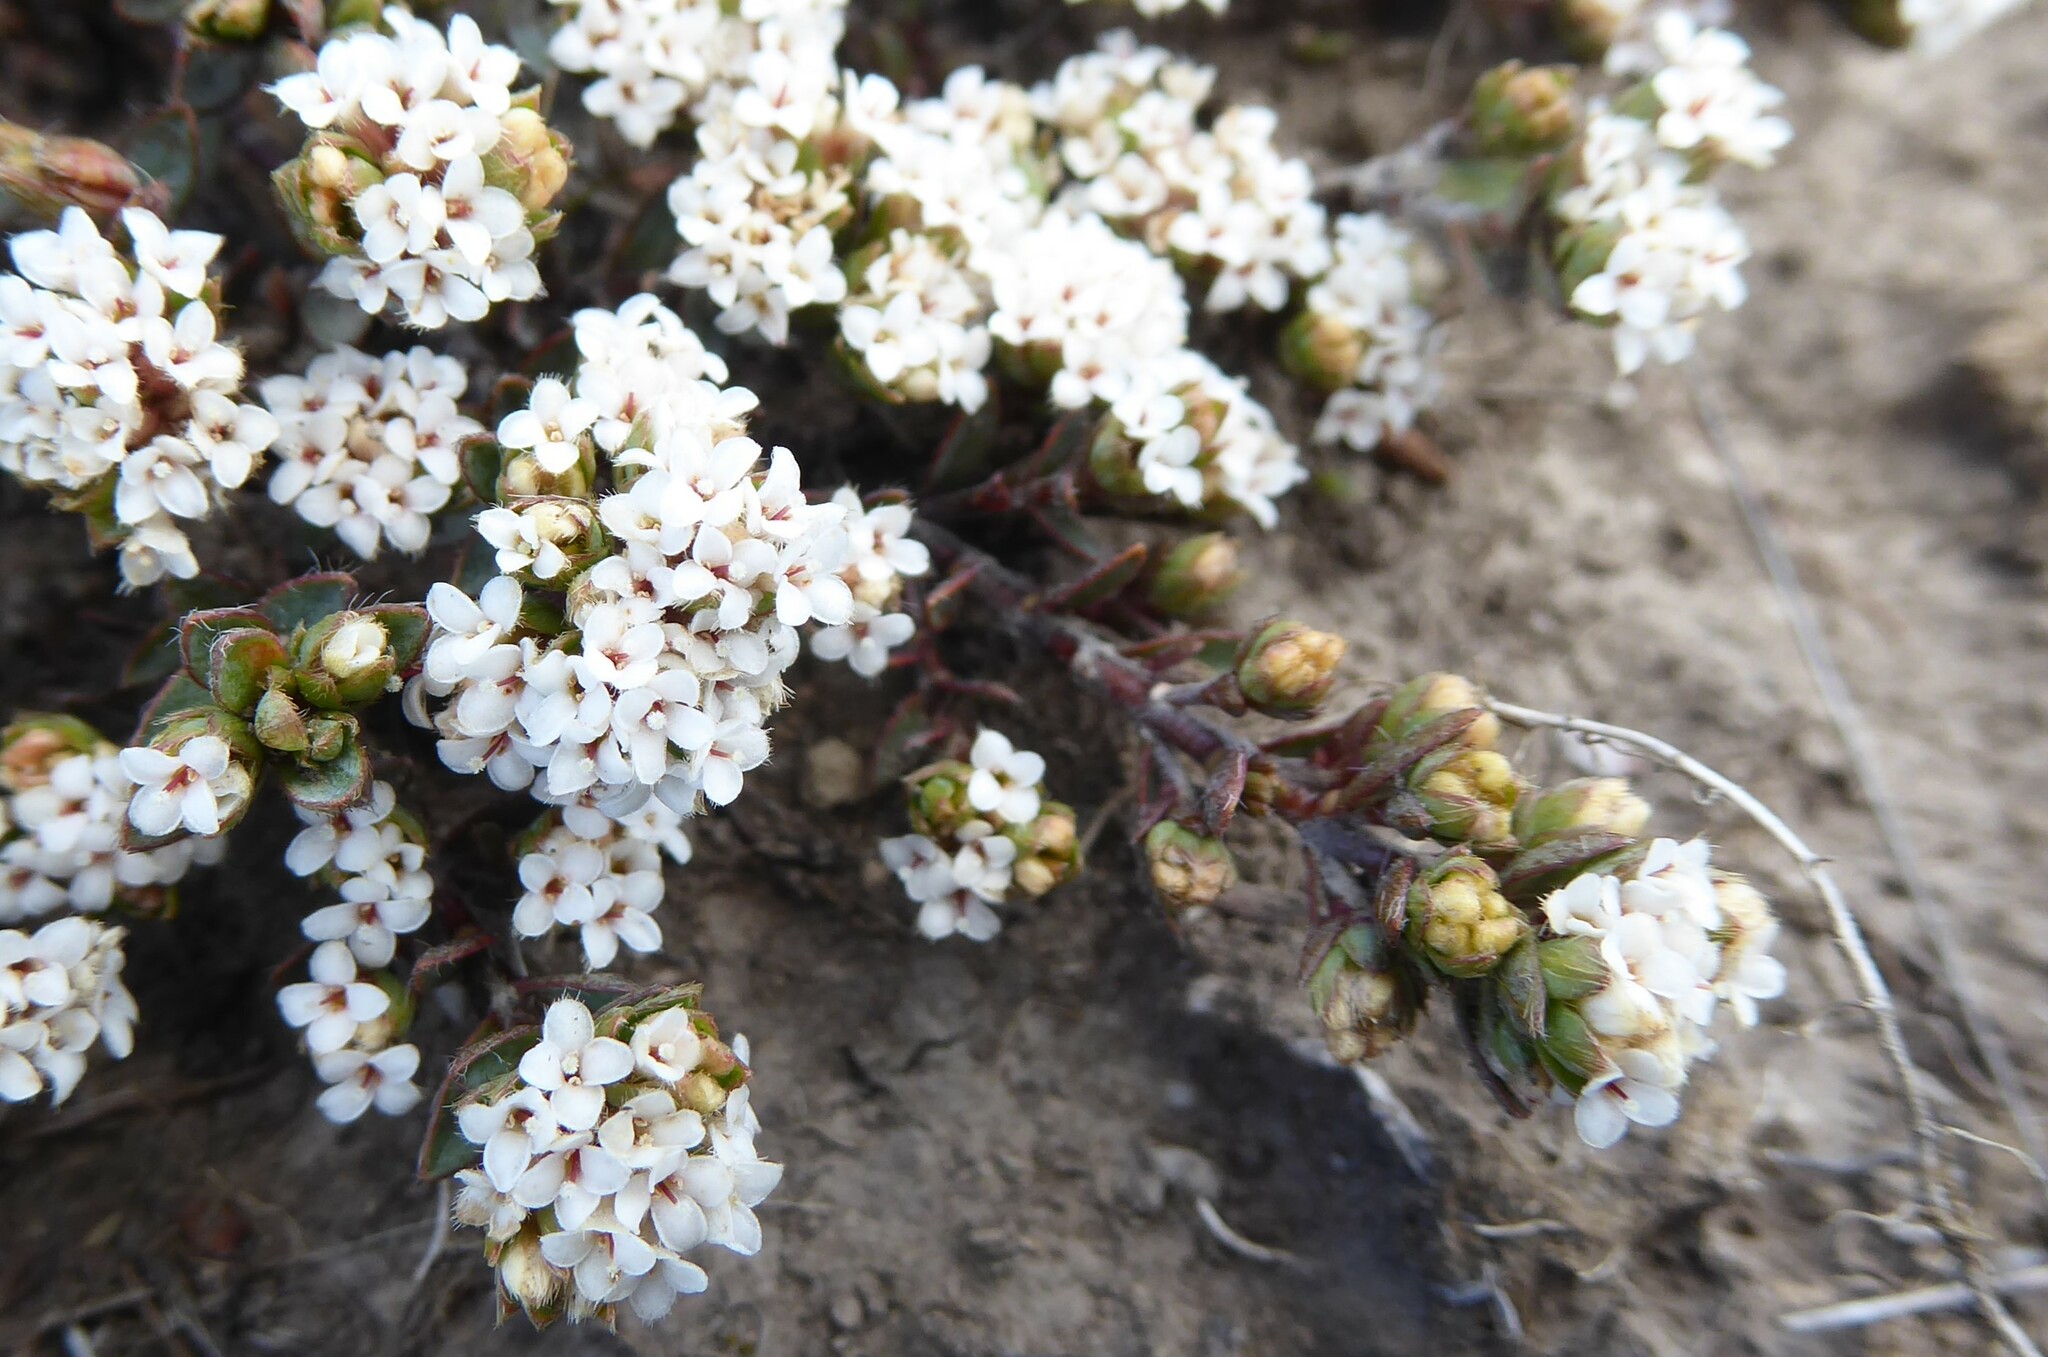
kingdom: Plantae
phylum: Tracheophyta
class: Magnoliopsida
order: Malvales
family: Thymelaeaceae
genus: Pimelea
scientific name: Pimelea oreophila
